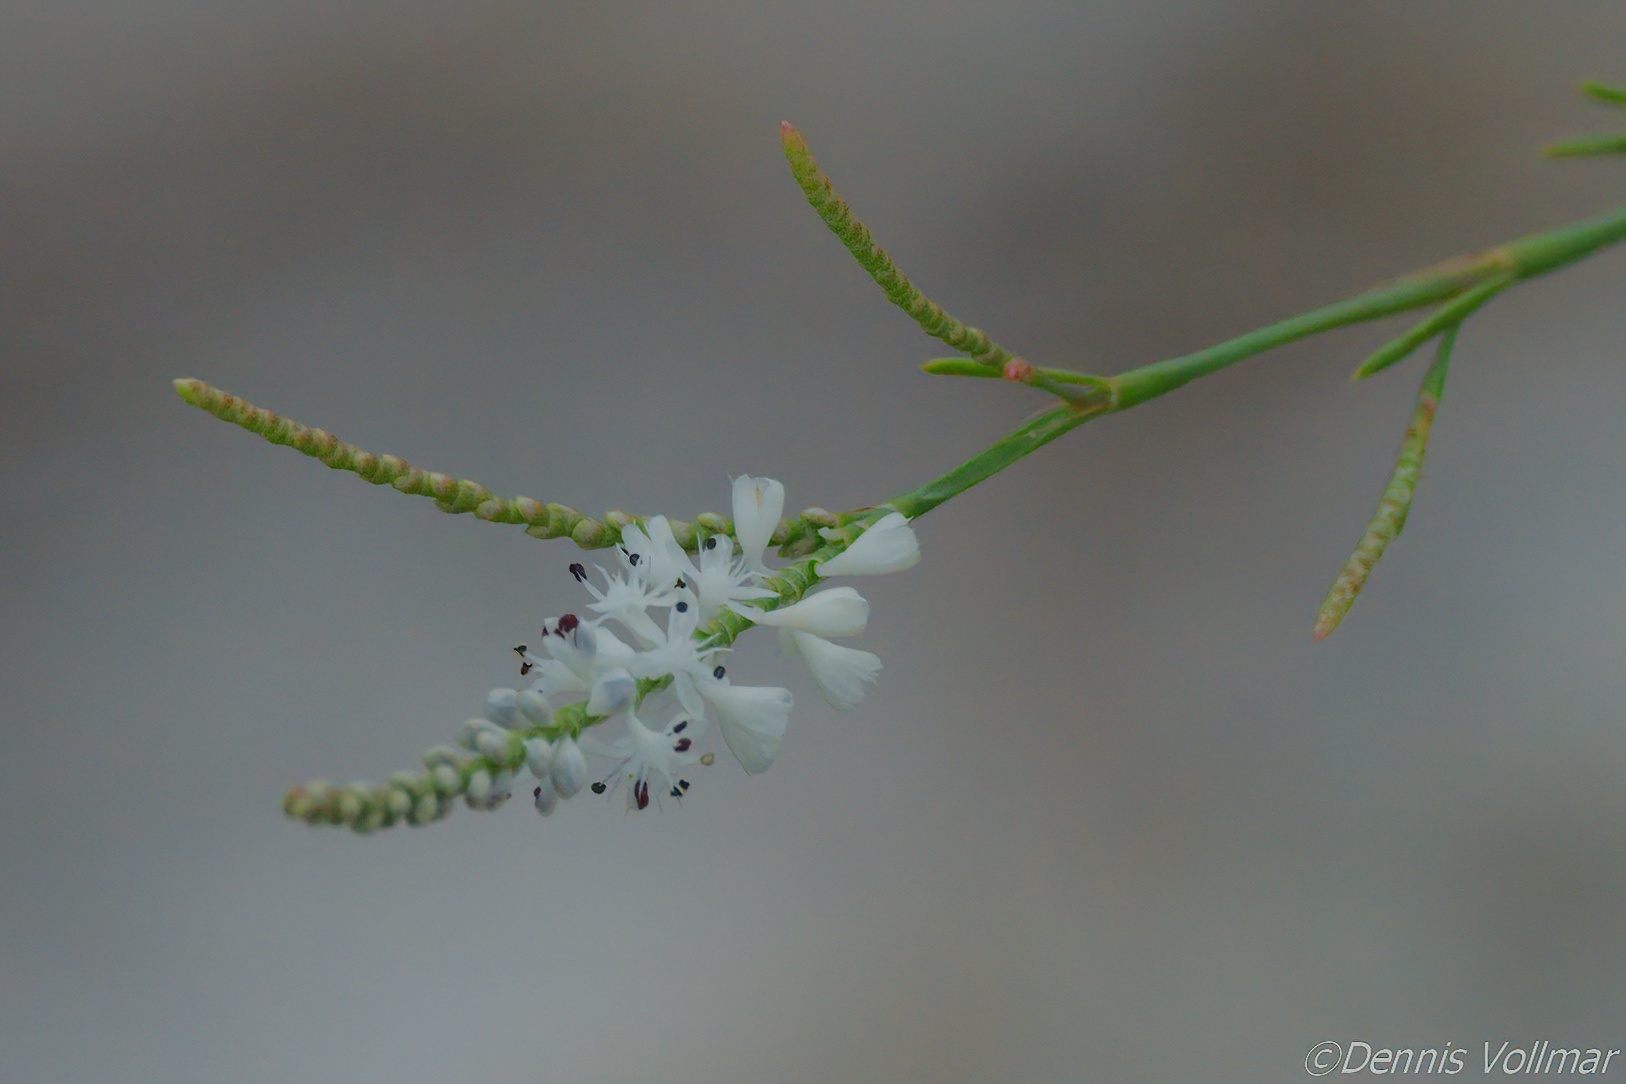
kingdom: Plantae
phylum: Tracheophyta
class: Magnoliopsida
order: Caryophyllales
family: Polygonaceae
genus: Polygonella
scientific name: Polygonella ciliata
